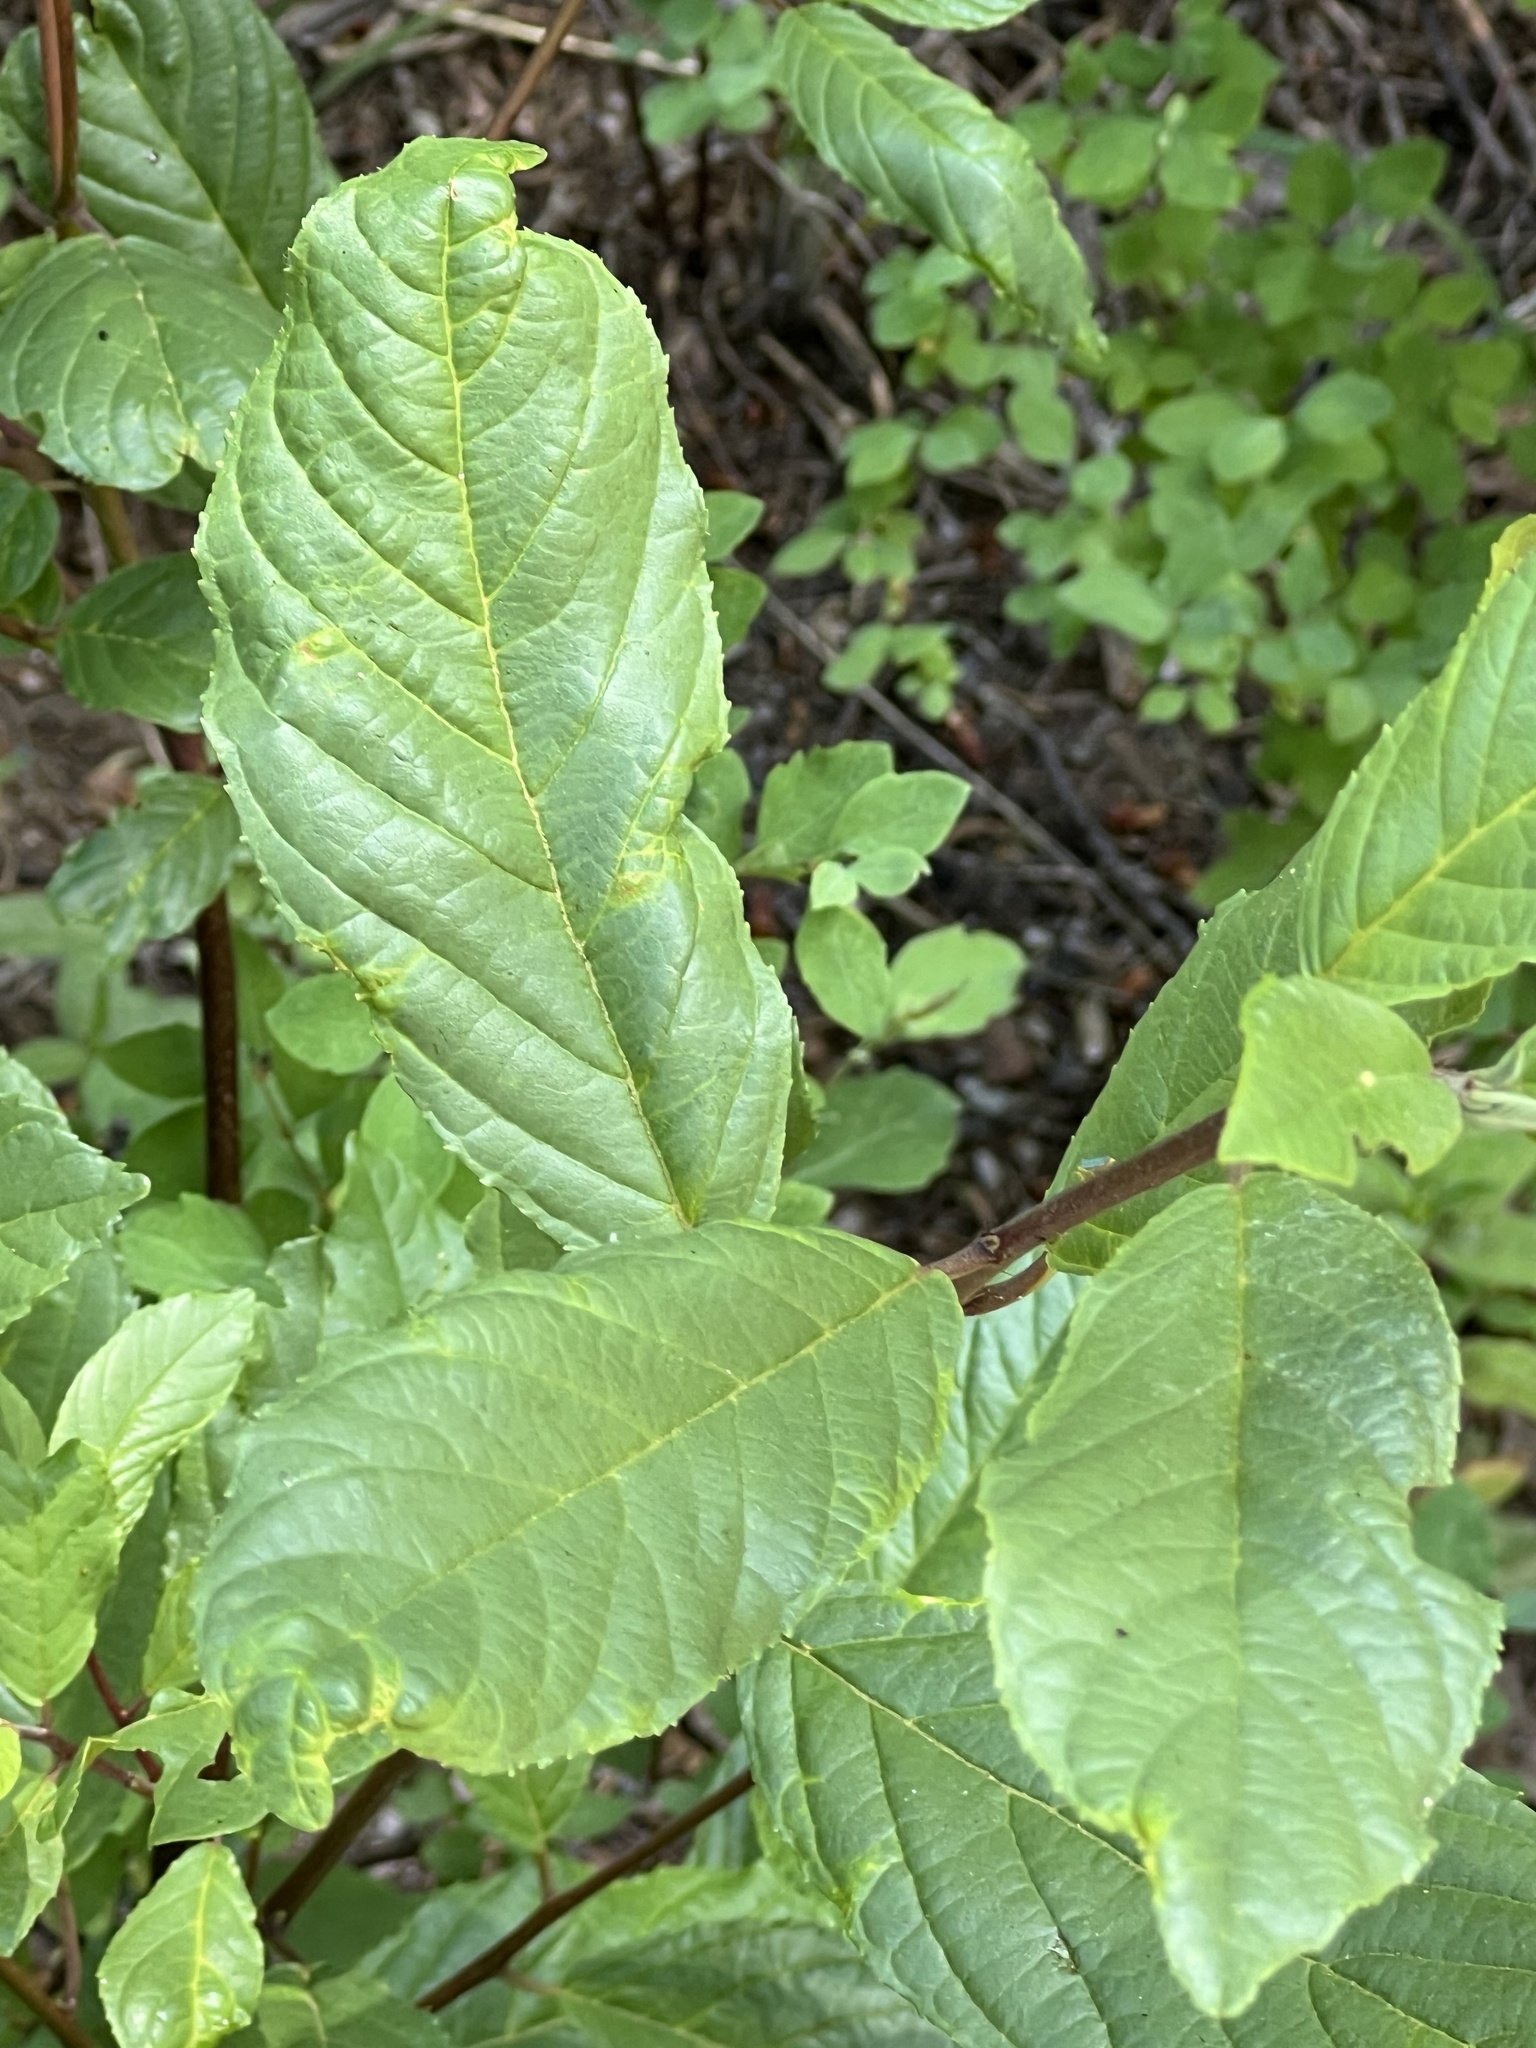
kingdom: Plantae
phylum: Tracheophyta
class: Magnoliopsida
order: Rosales
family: Rhamnaceae
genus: Frangula
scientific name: Frangula betulifolia
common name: Birch-leaf buckthorn
